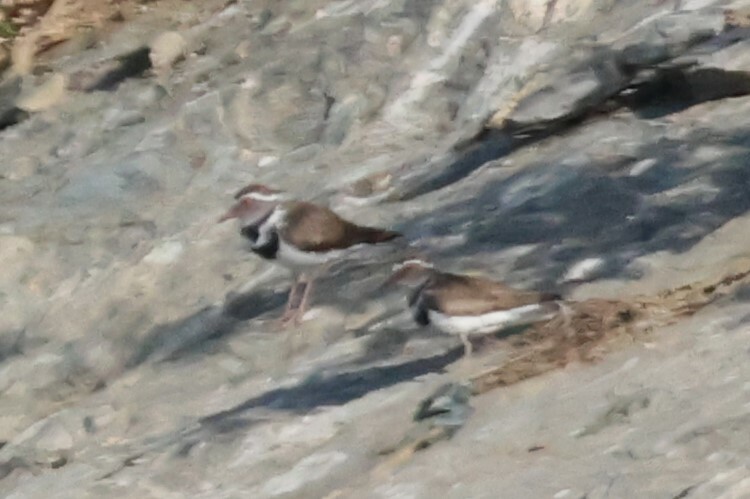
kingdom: Animalia
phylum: Chordata
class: Aves
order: Charadriiformes
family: Charadriidae
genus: Charadrius
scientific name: Charadrius tricollaris
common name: Three-banded plover
